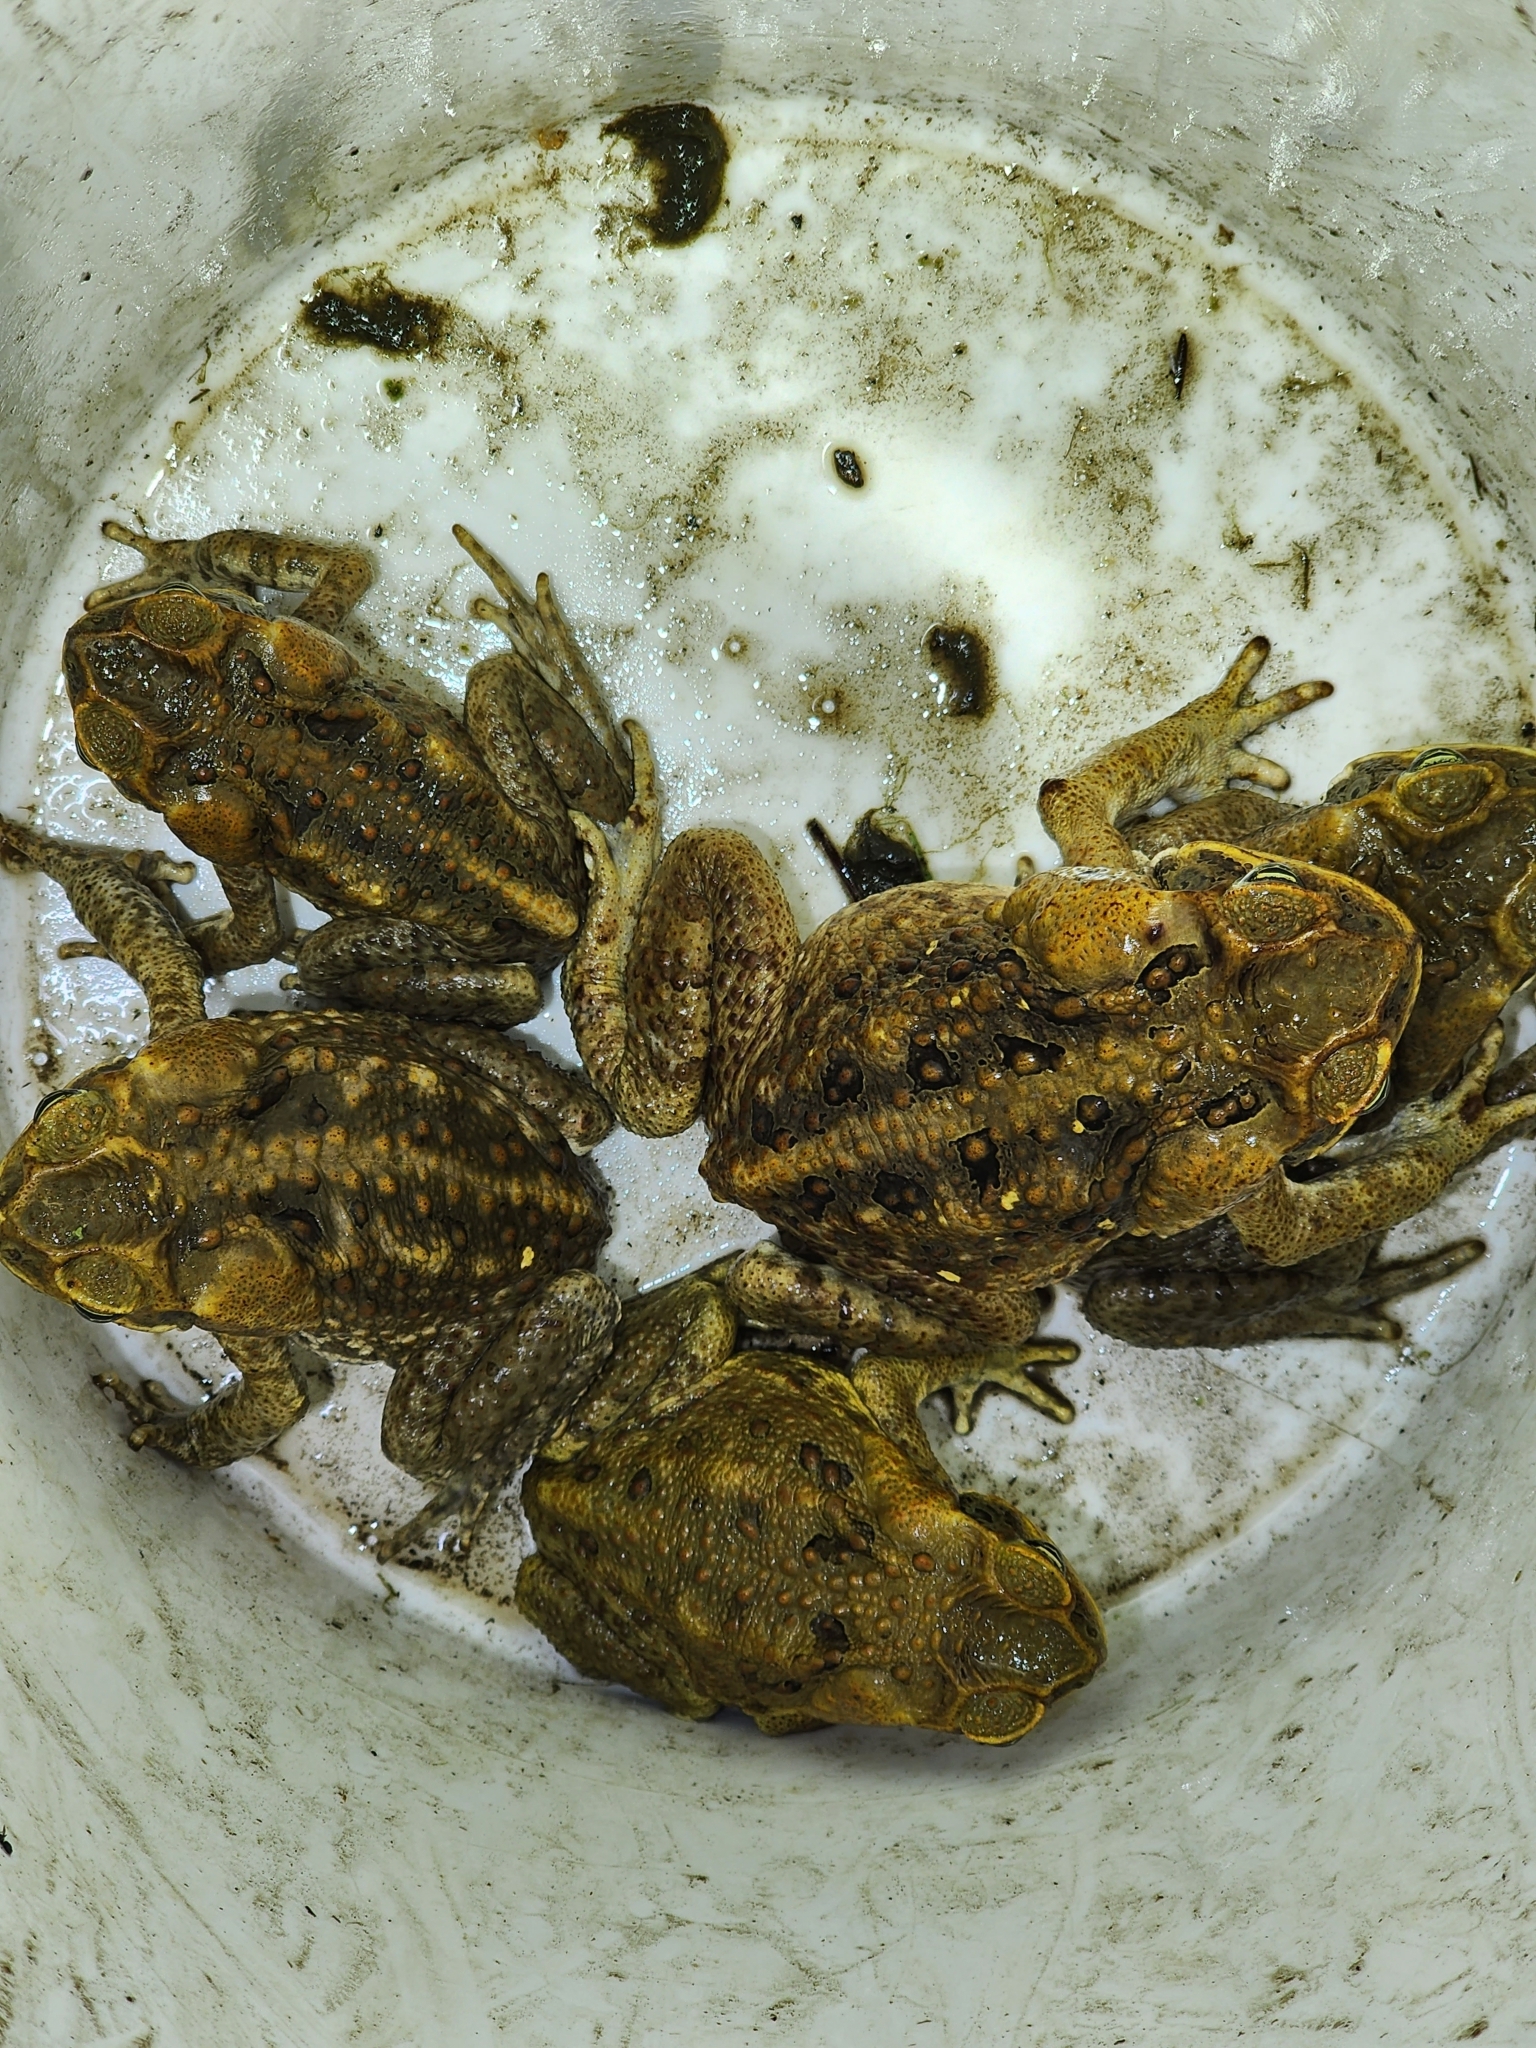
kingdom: Animalia
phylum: Chordata
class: Amphibia
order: Anura
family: Bufonidae
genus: Rhinella
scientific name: Rhinella marina
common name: Cane toad
